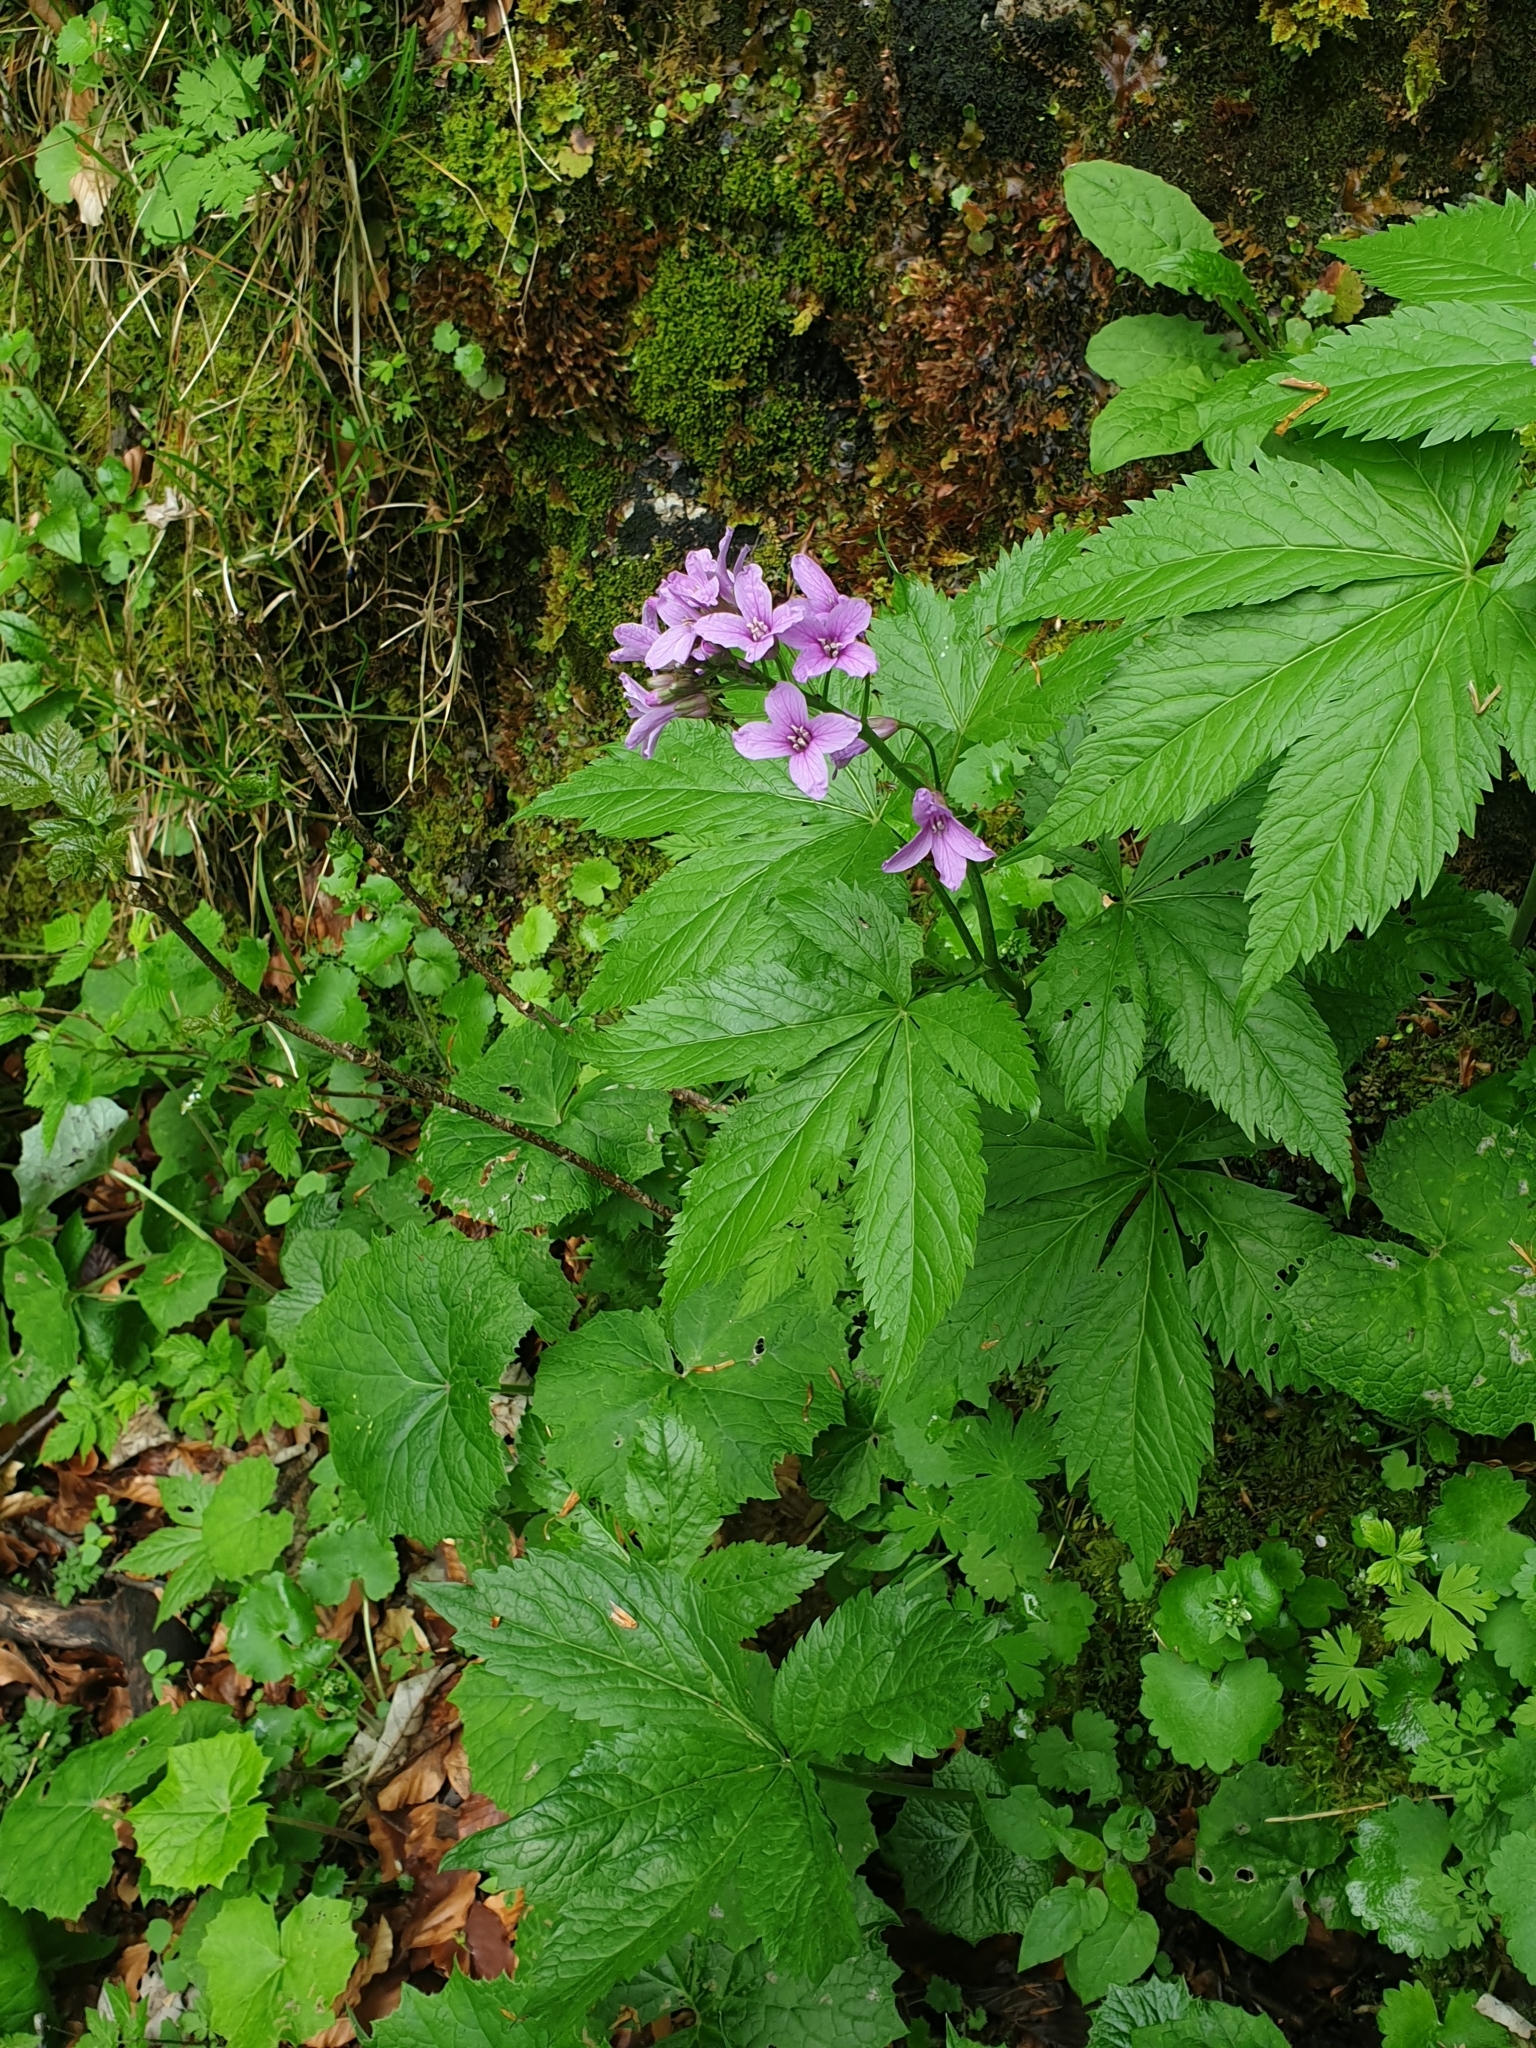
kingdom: Plantae
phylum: Tracheophyta
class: Magnoliopsida
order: Brassicales
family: Brassicaceae
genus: Cardamine
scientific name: Cardamine pentaphyllos
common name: Five-leaflet bitter-cress
